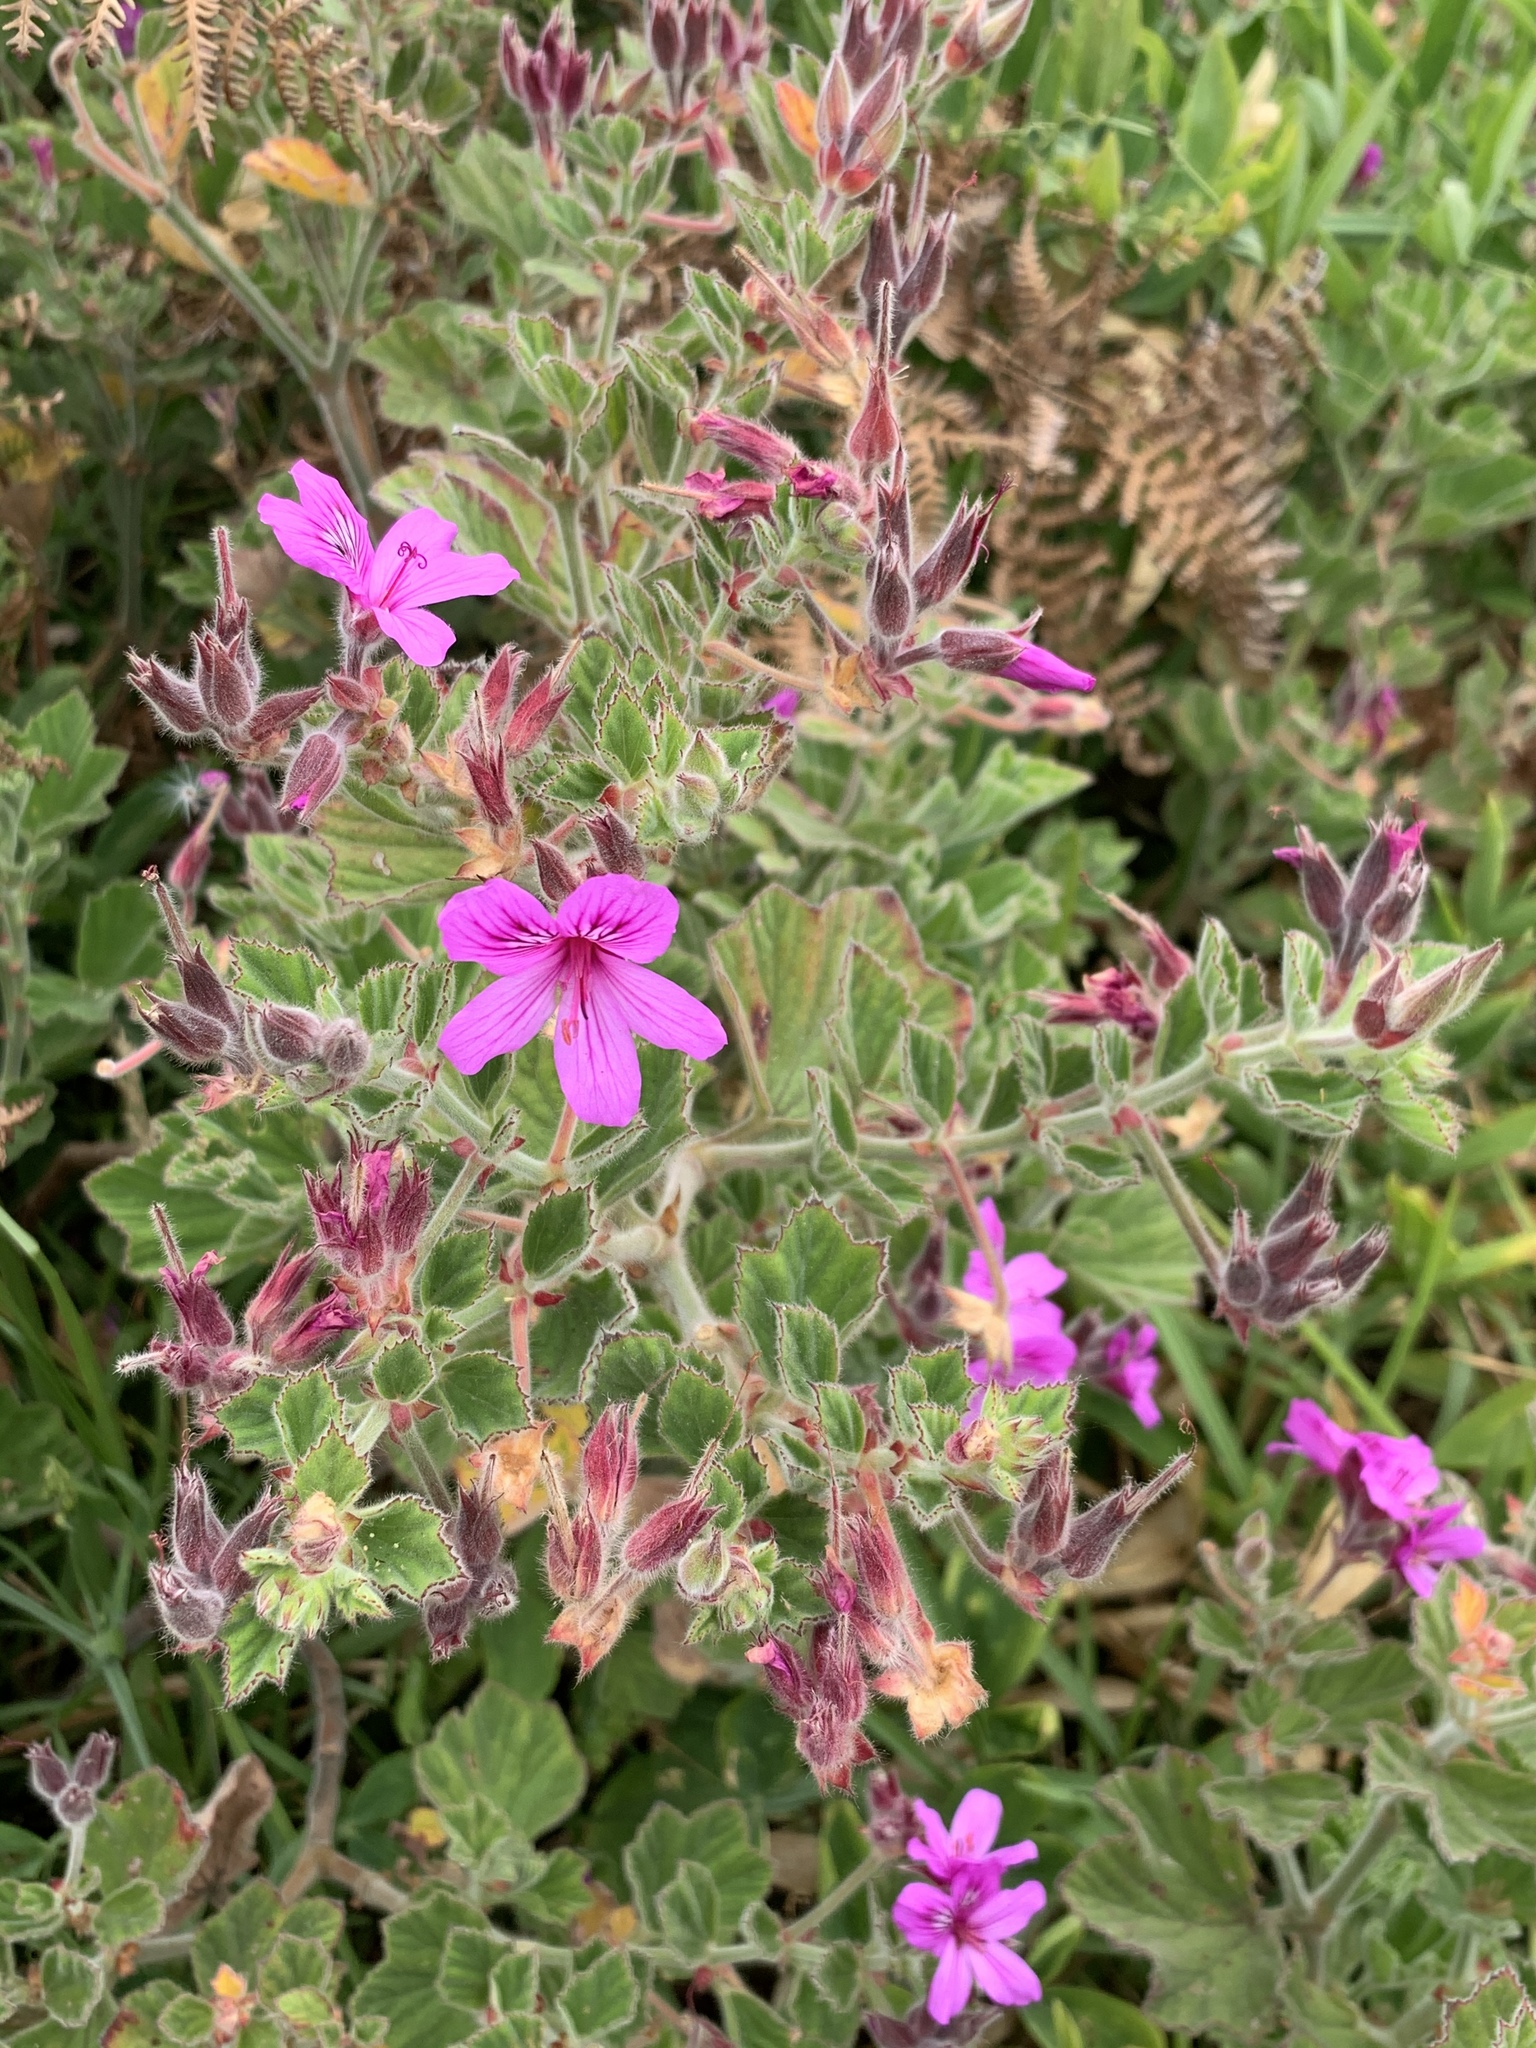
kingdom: Plantae
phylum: Tracheophyta
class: Magnoliopsida
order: Geraniales
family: Geraniaceae
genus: Pelargonium
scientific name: Pelargonium cucullatum
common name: Tree pelargonium
